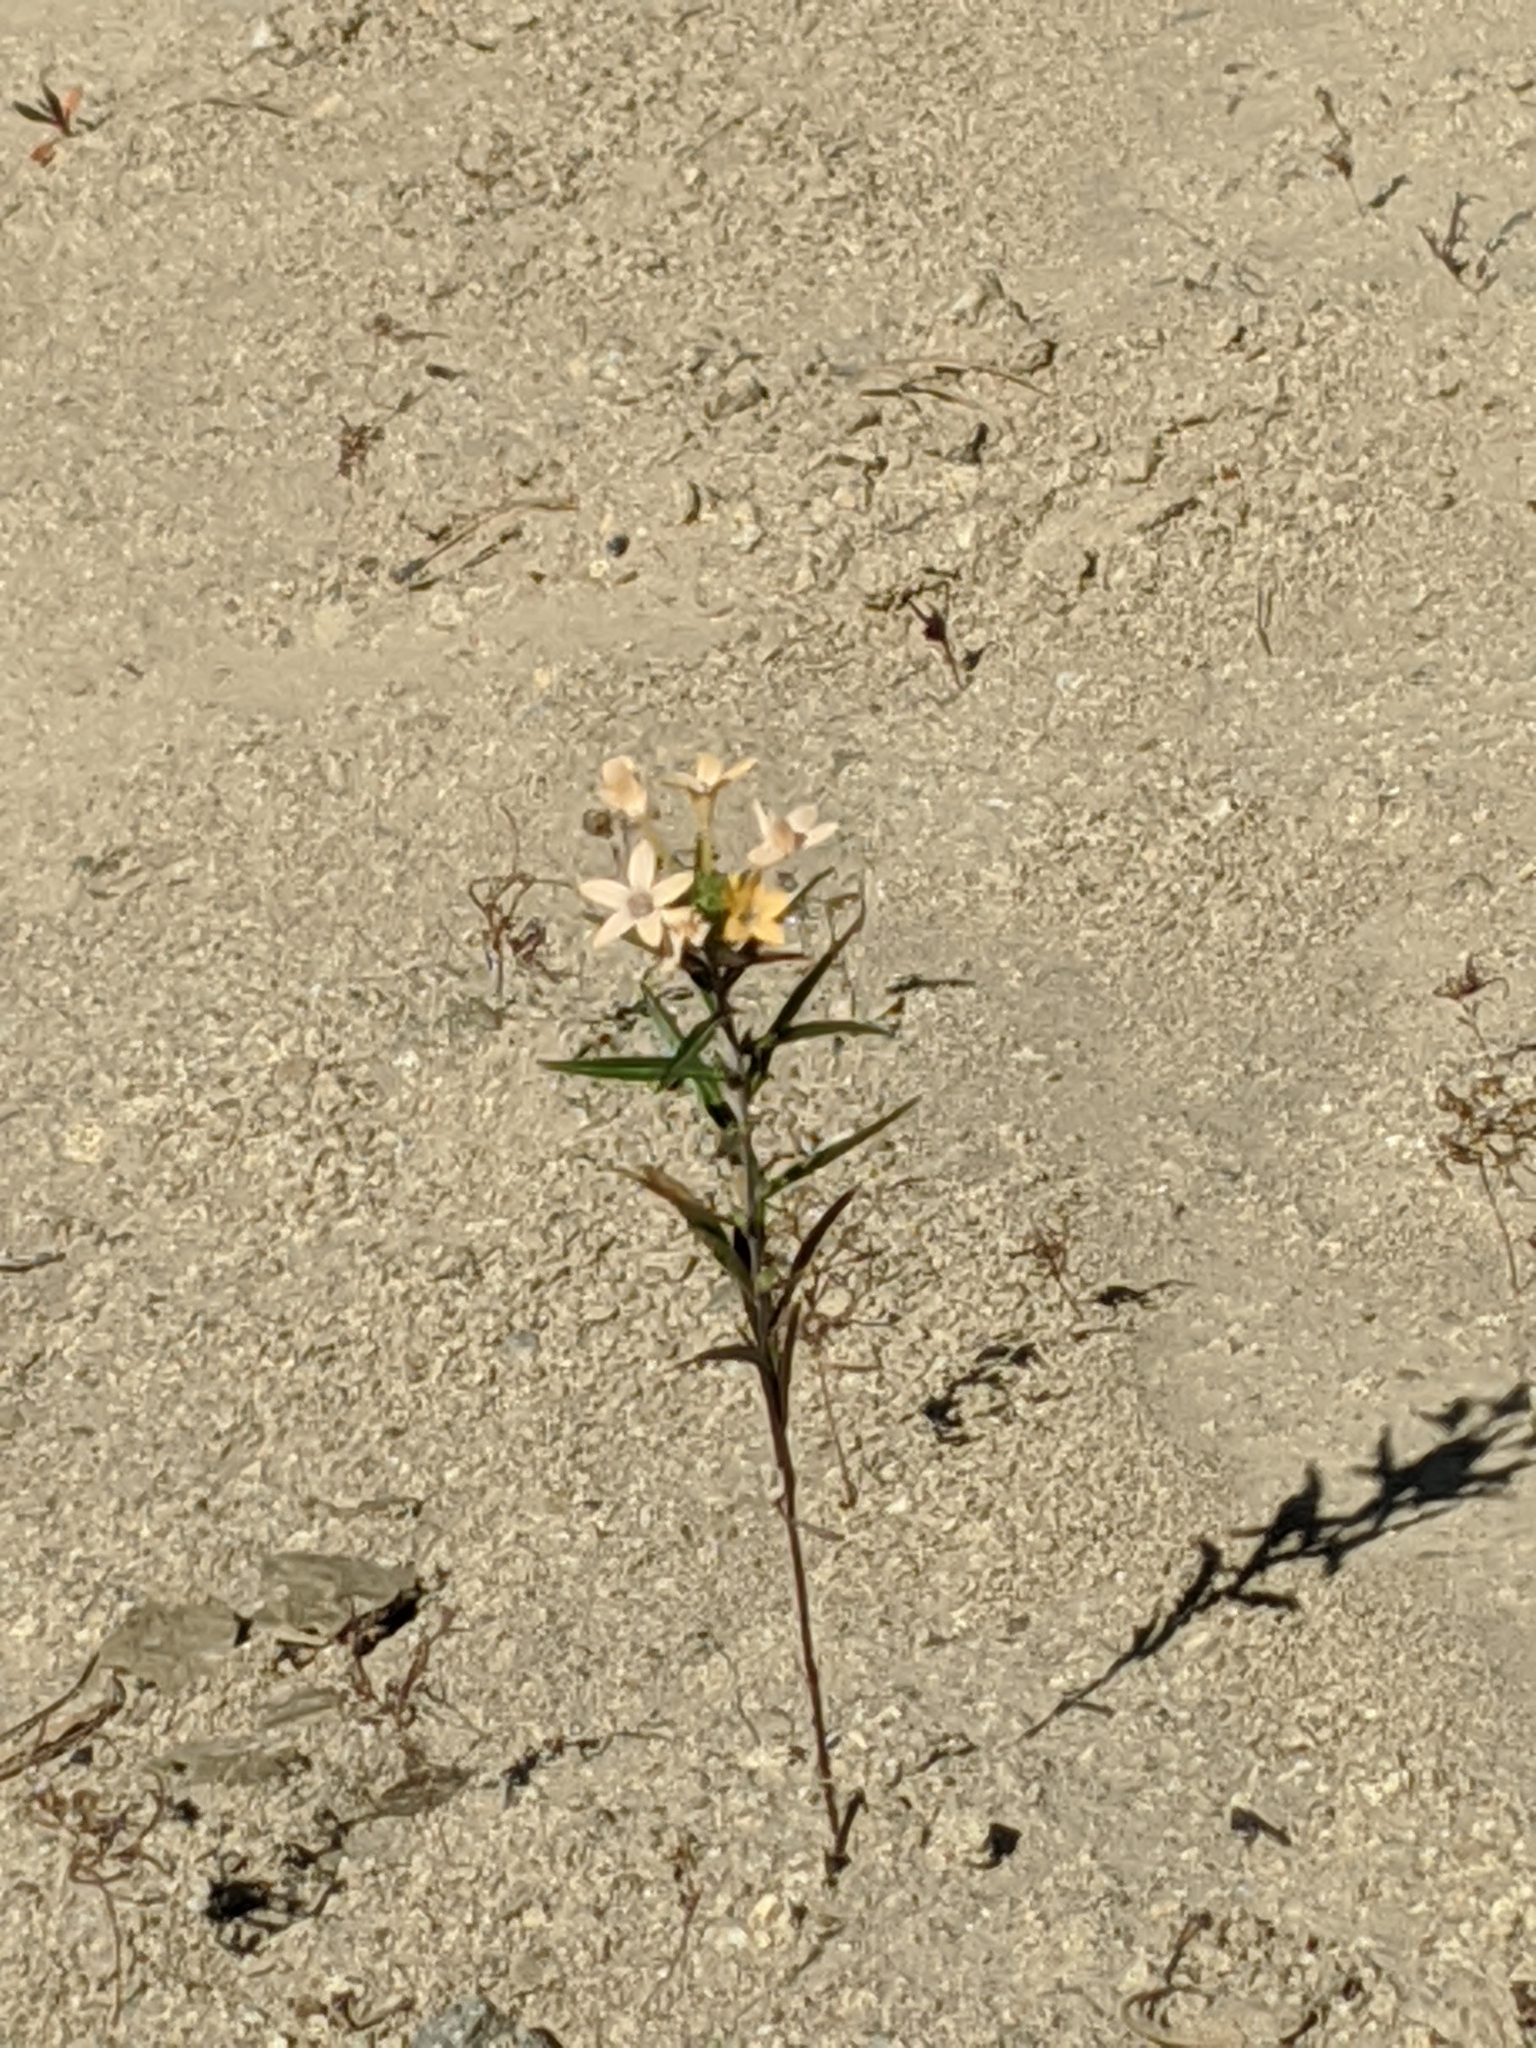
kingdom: Plantae
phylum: Tracheophyta
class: Magnoliopsida
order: Ericales
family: Polemoniaceae
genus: Collomia
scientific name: Collomia grandiflora
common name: California strawflower
